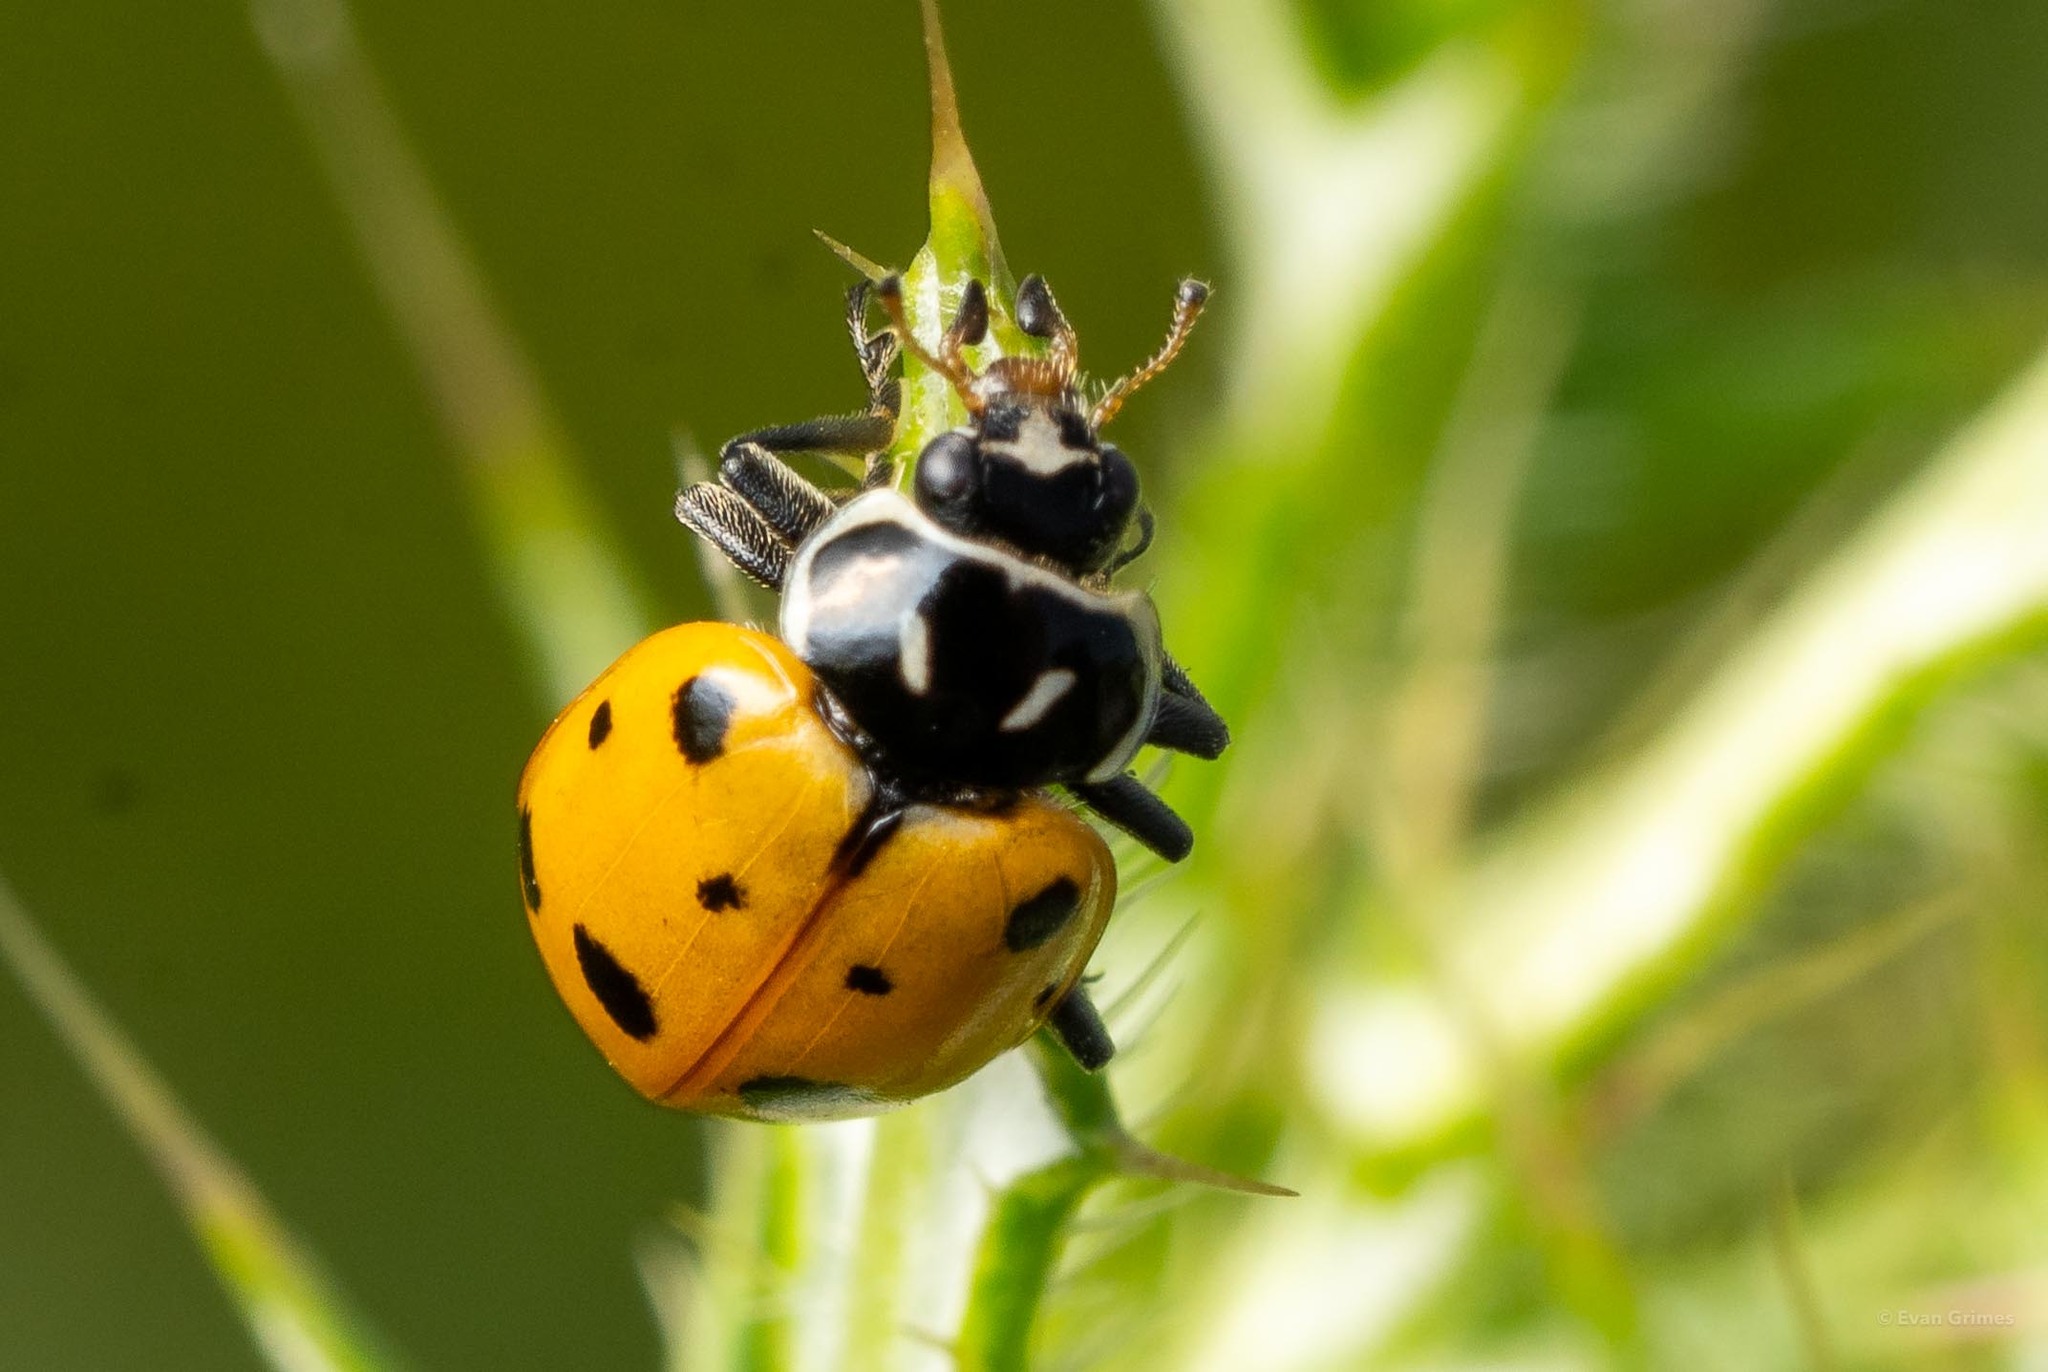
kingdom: Animalia
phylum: Arthropoda
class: Insecta
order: Coleoptera
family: Coccinellidae
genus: Hippodamia
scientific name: Hippodamia convergens
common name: Convergent lady beetle
